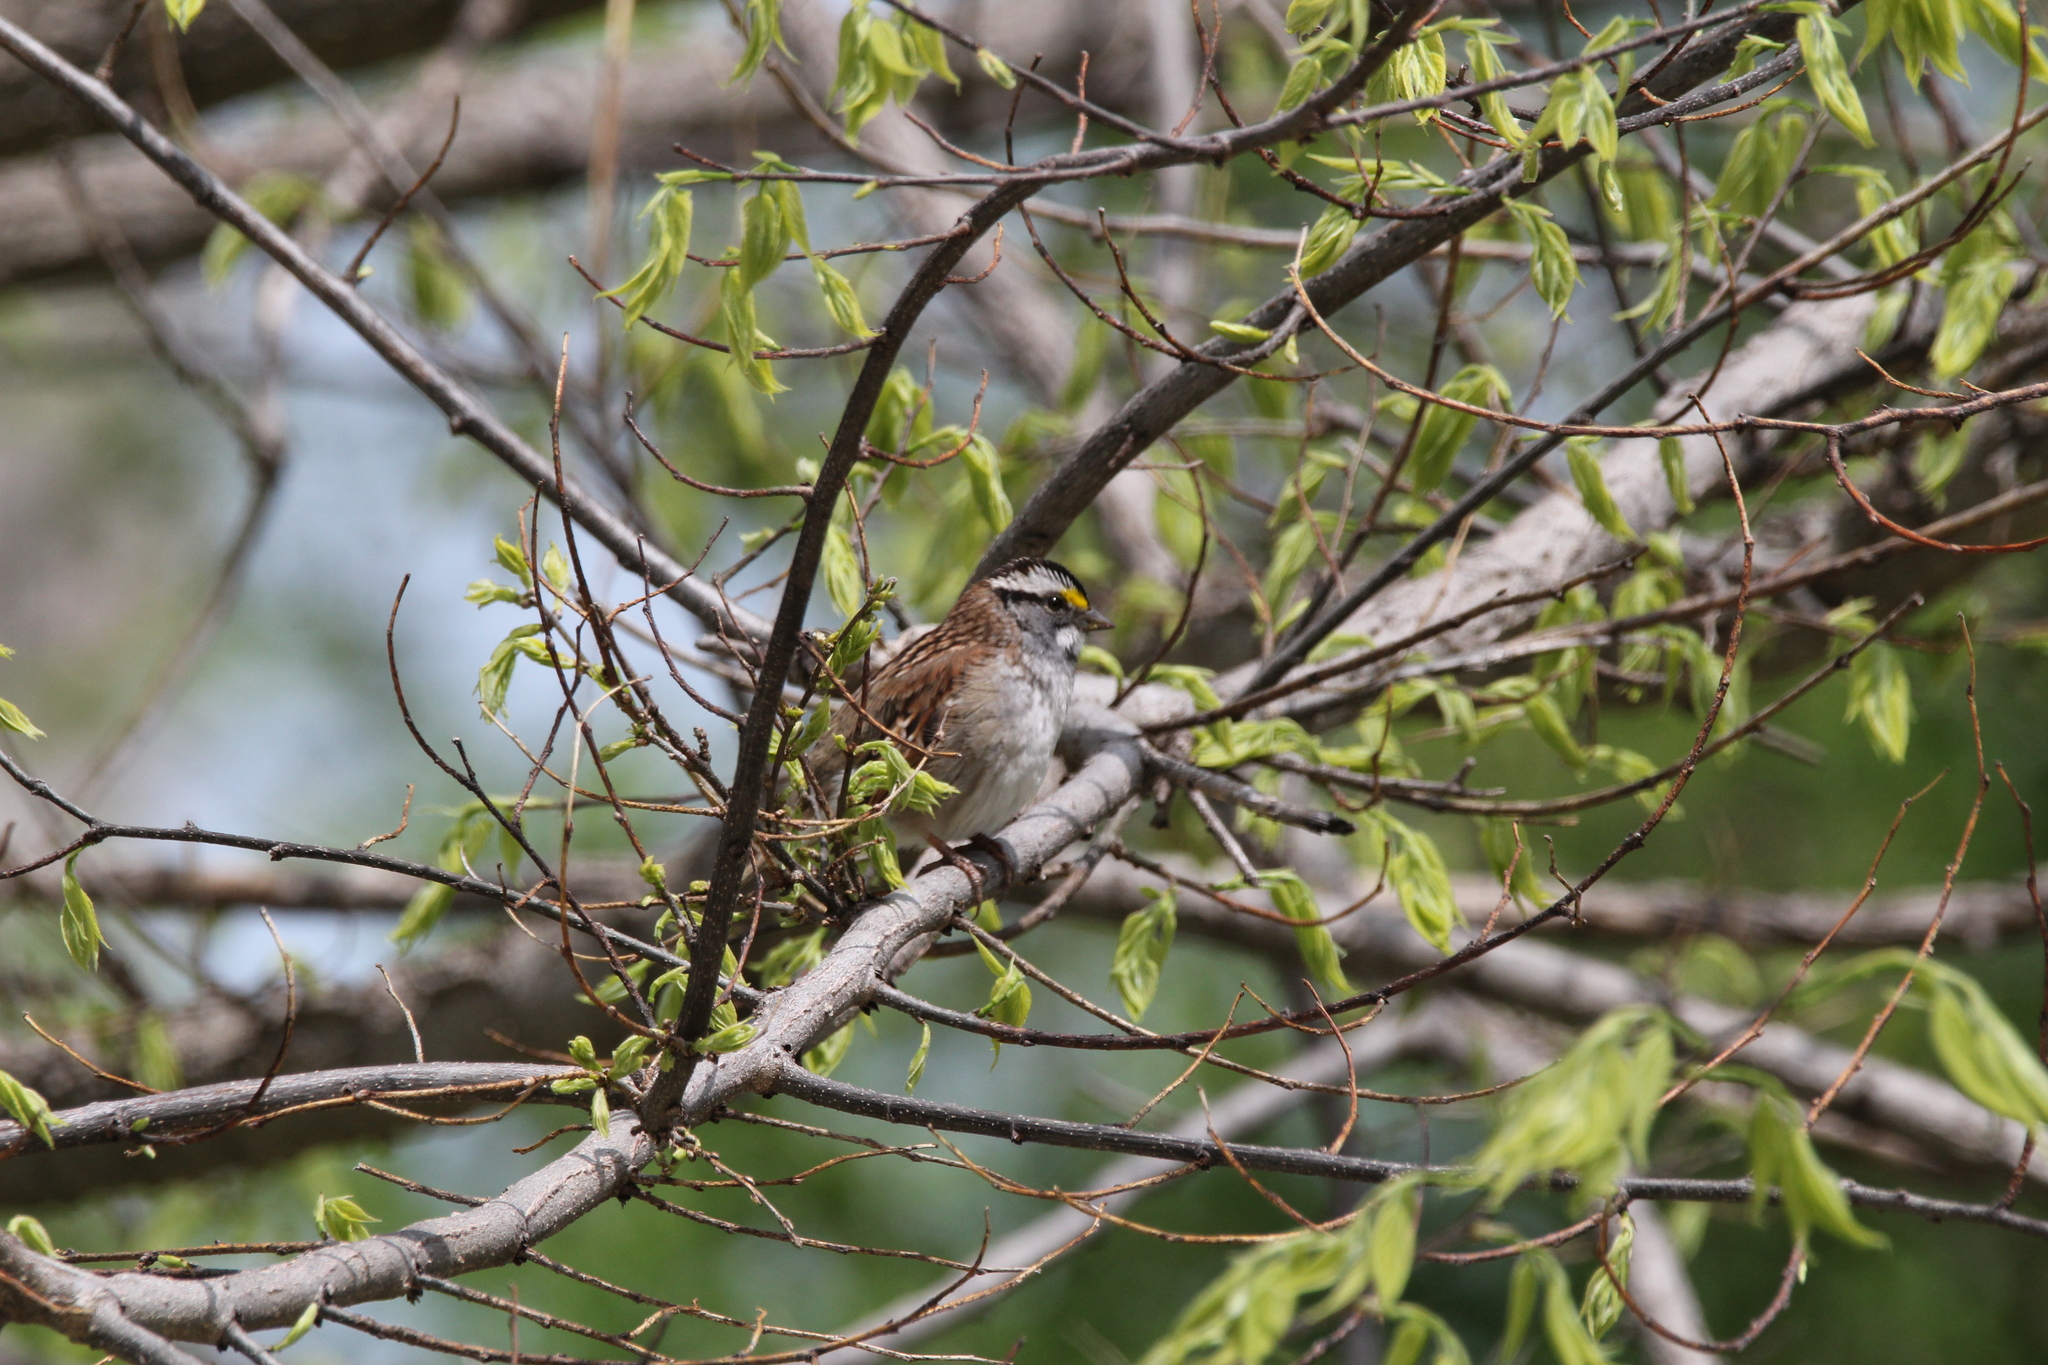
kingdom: Animalia
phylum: Chordata
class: Aves
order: Passeriformes
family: Passerellidae
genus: Zonotrichia
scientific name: Zonotrichia albicollis
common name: White-throated sparrow
